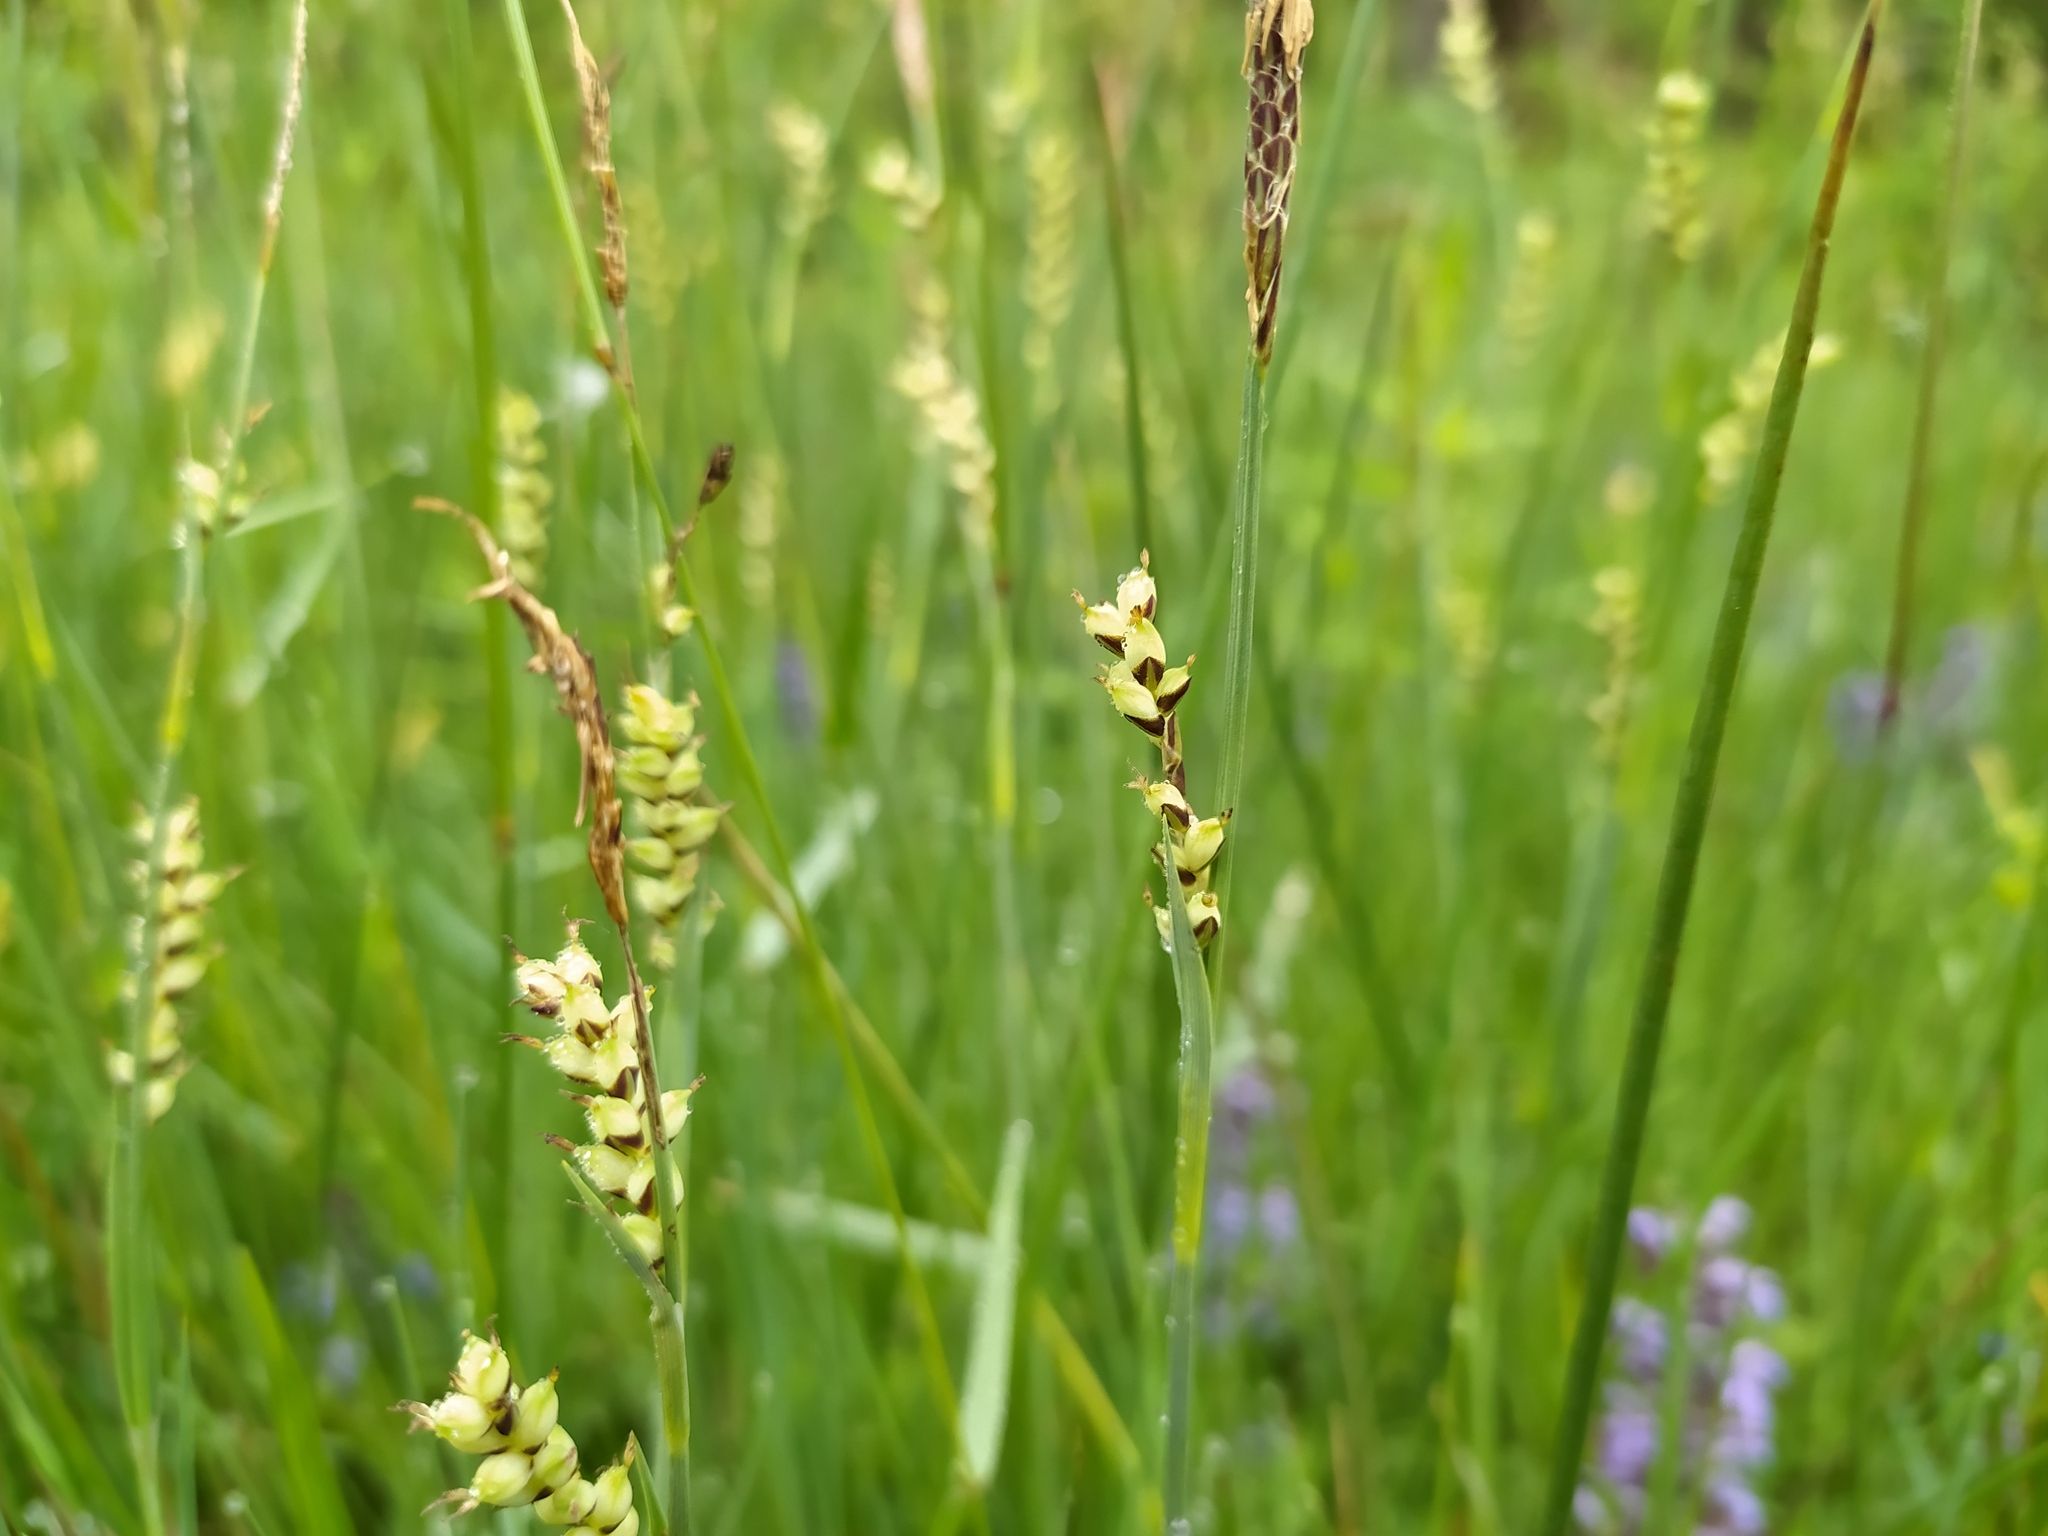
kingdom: Plantae
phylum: Tracheophyta
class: Liliopsida
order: Poales
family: Cyperaceae
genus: Carex
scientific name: Carex panicea
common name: Carnation sedge
